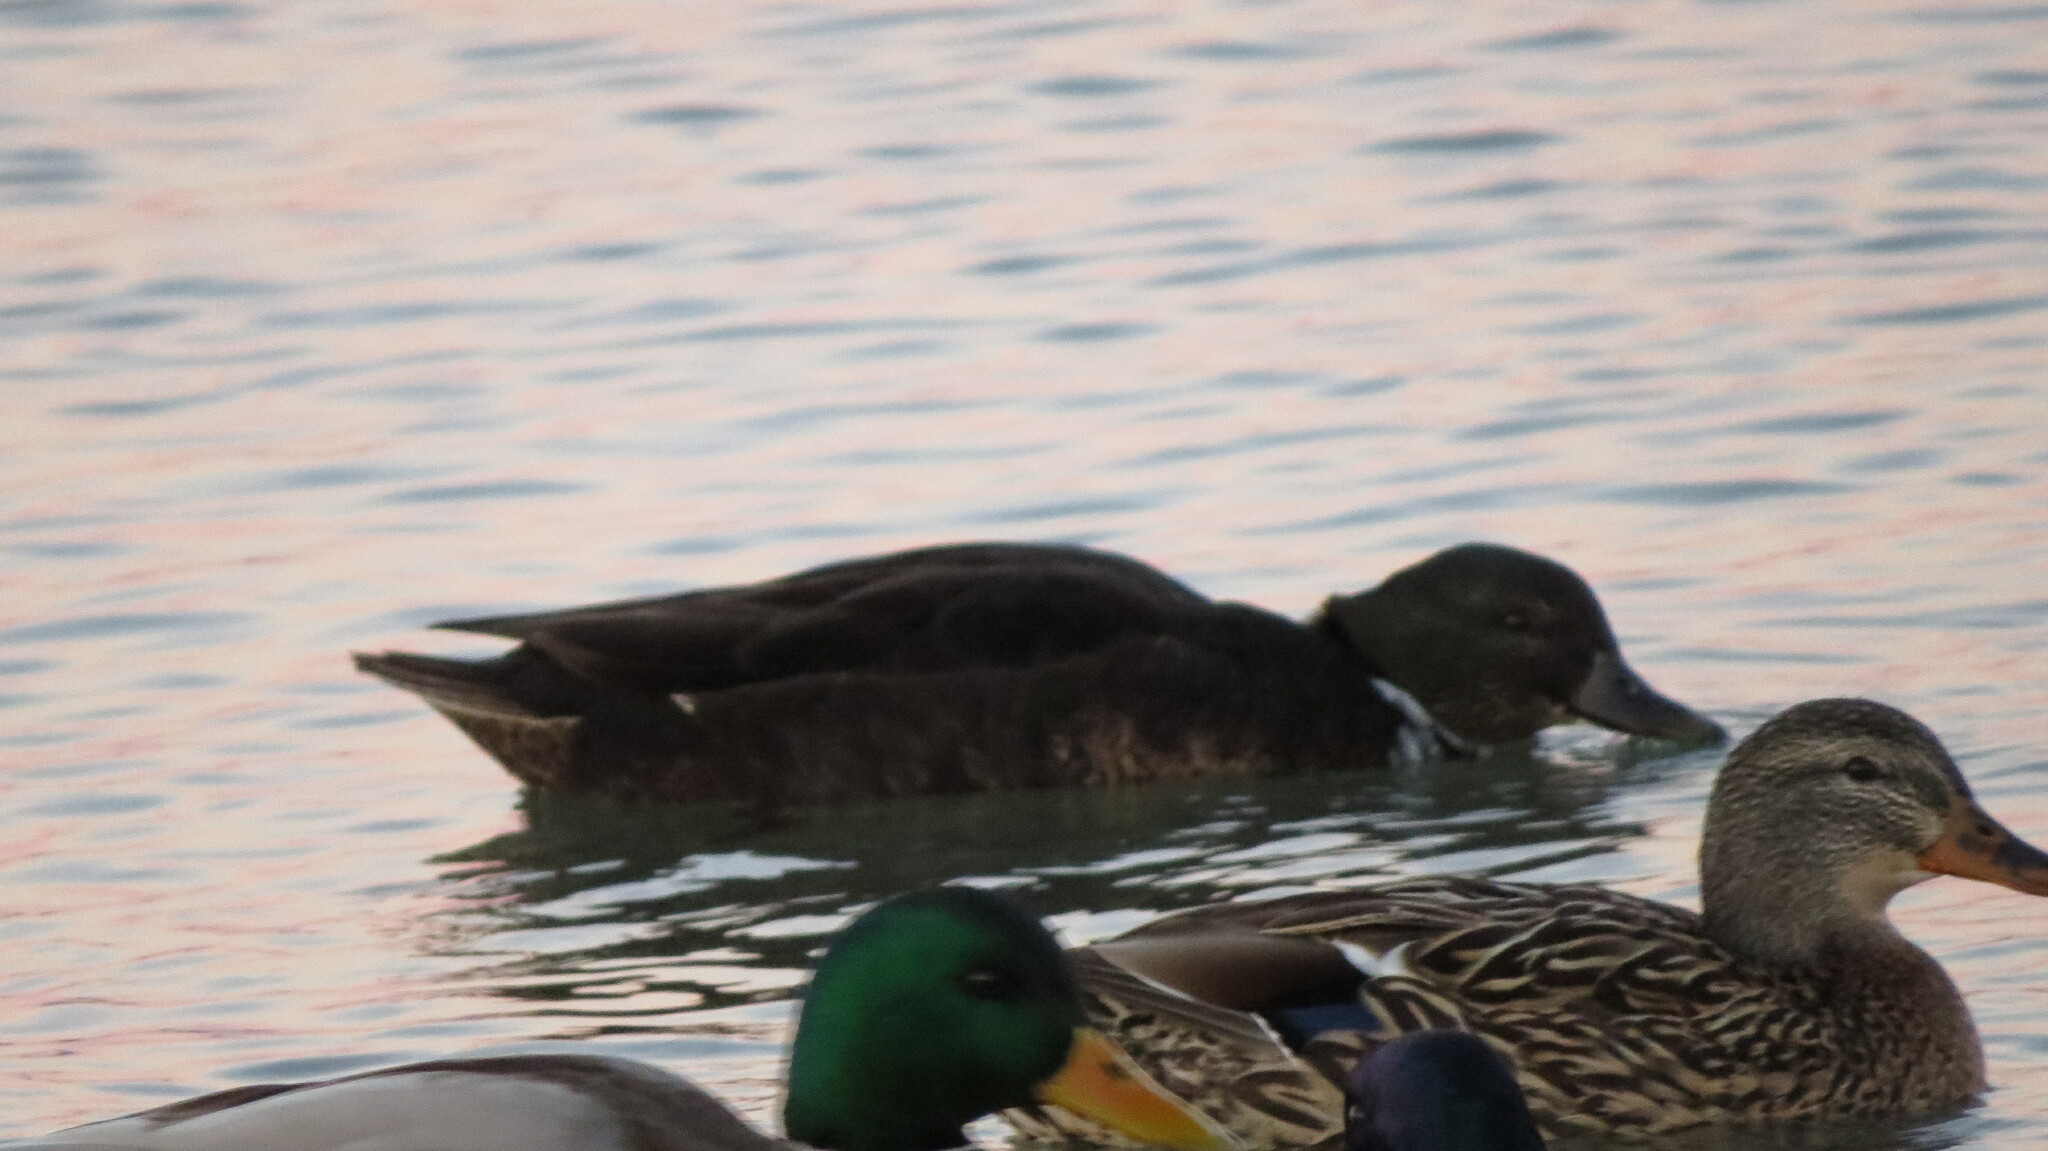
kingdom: Animalia
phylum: Chordata
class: Aves
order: Anseriformes
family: Anatidae
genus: Anas
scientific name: Anas platyrhynchos
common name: Mallard
